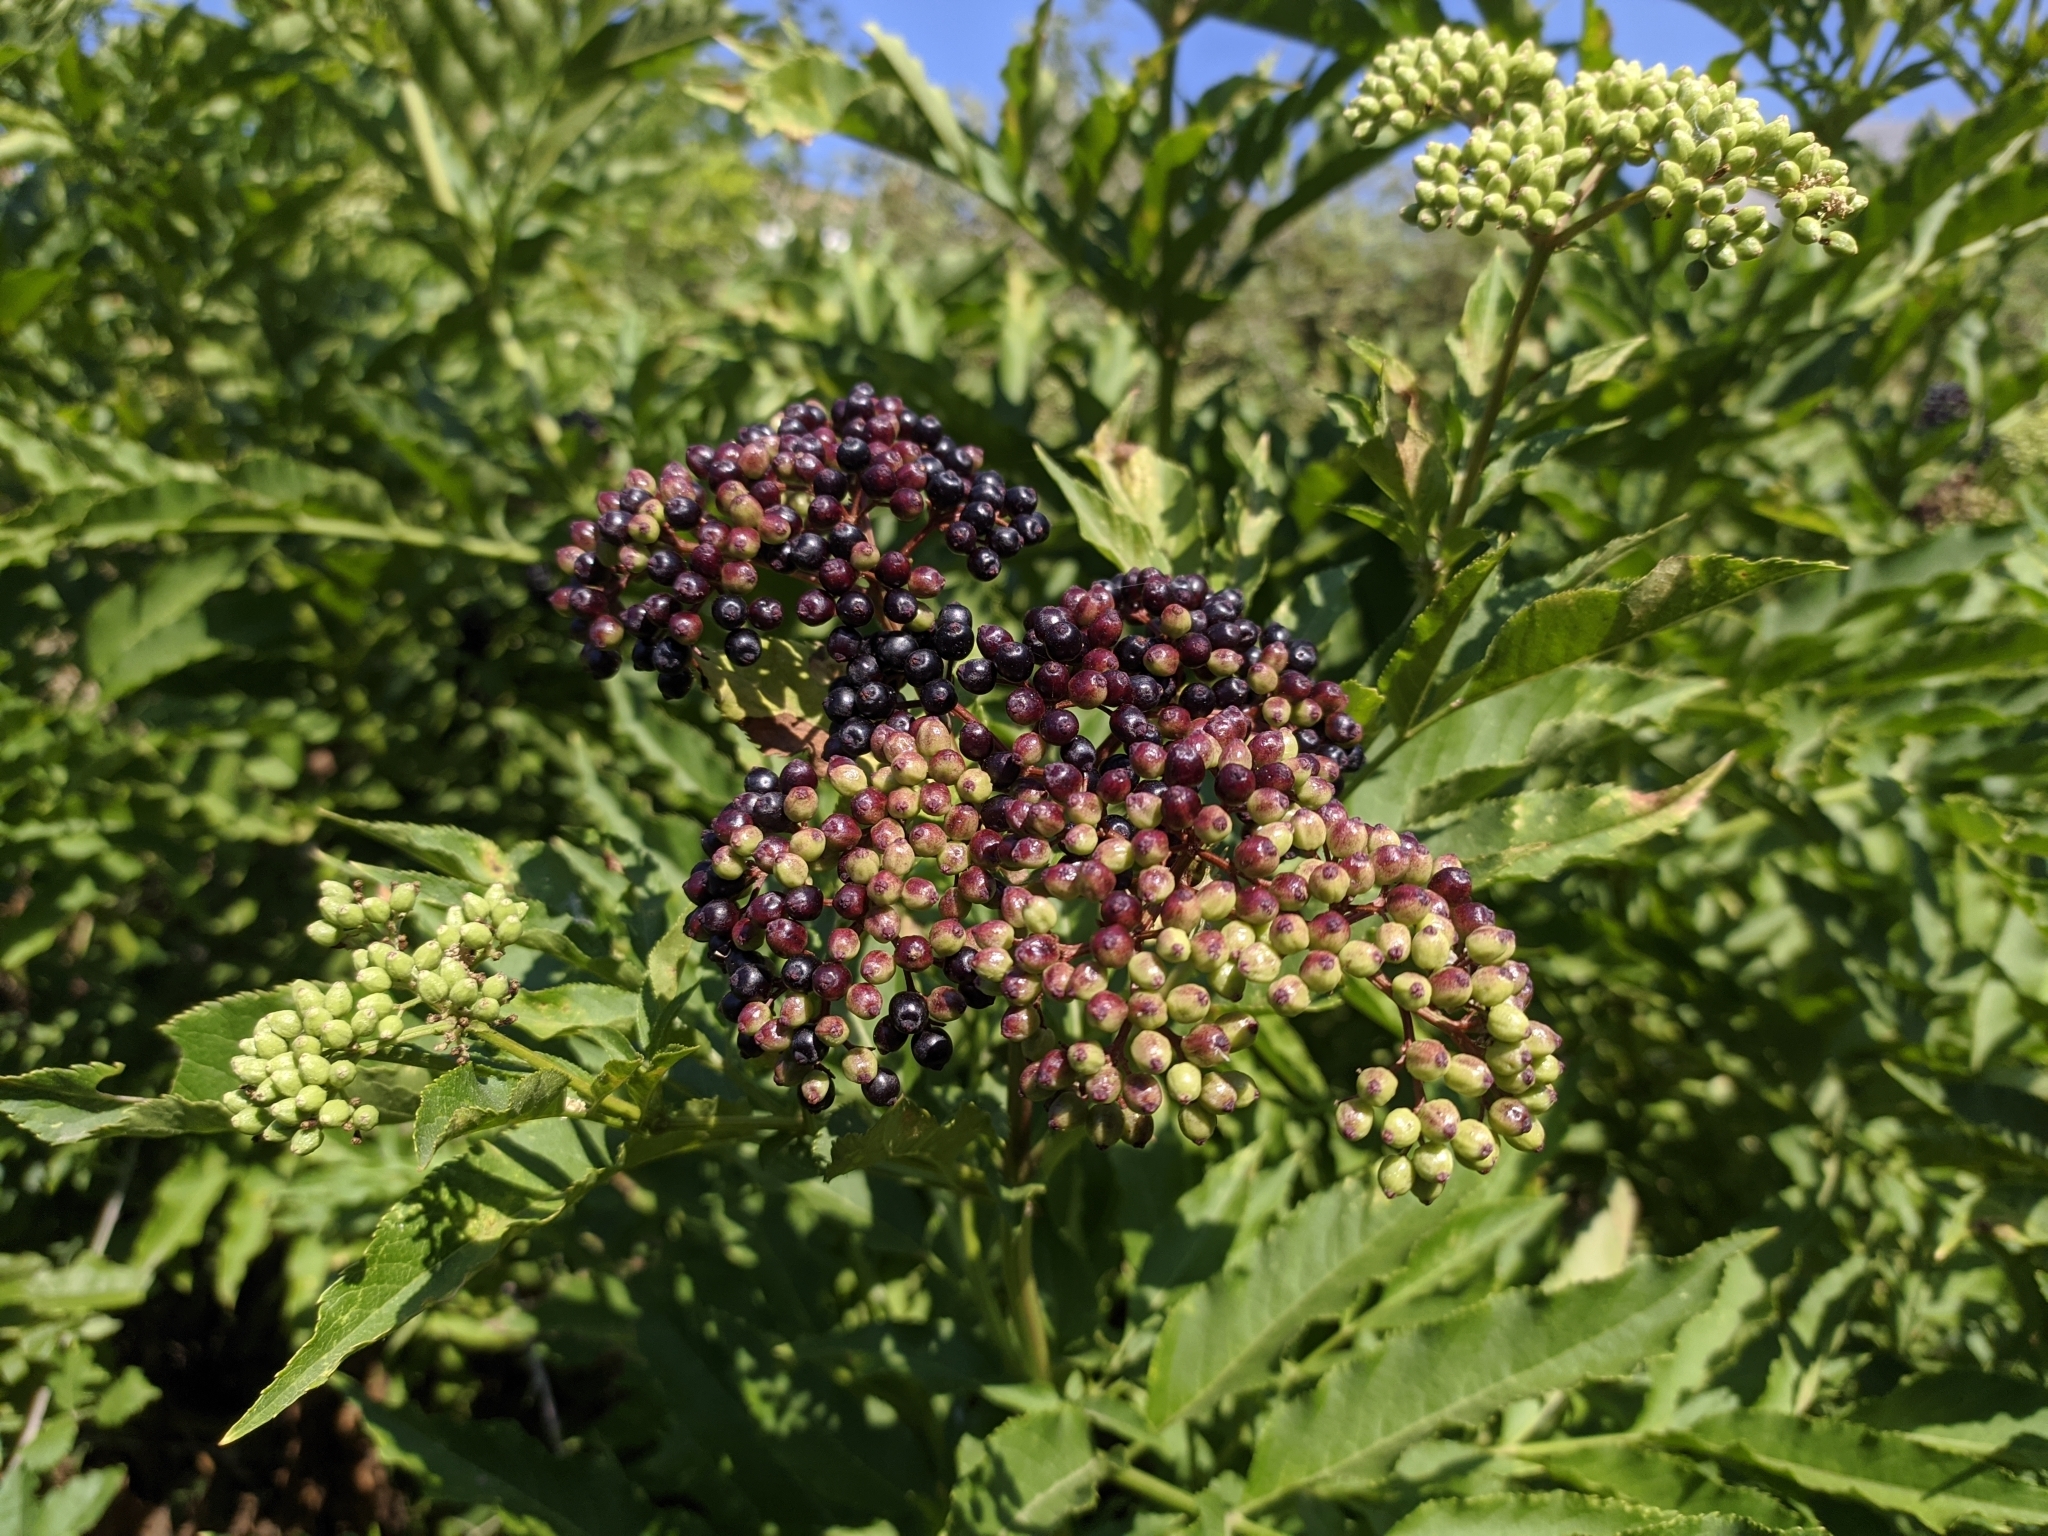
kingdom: Plantae
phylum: Tracheophyta
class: Magnoliopsida
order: Dipsacales
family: Viburnaceae
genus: Sambucus
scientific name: Sambucus ebulus
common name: Dwarf elder
